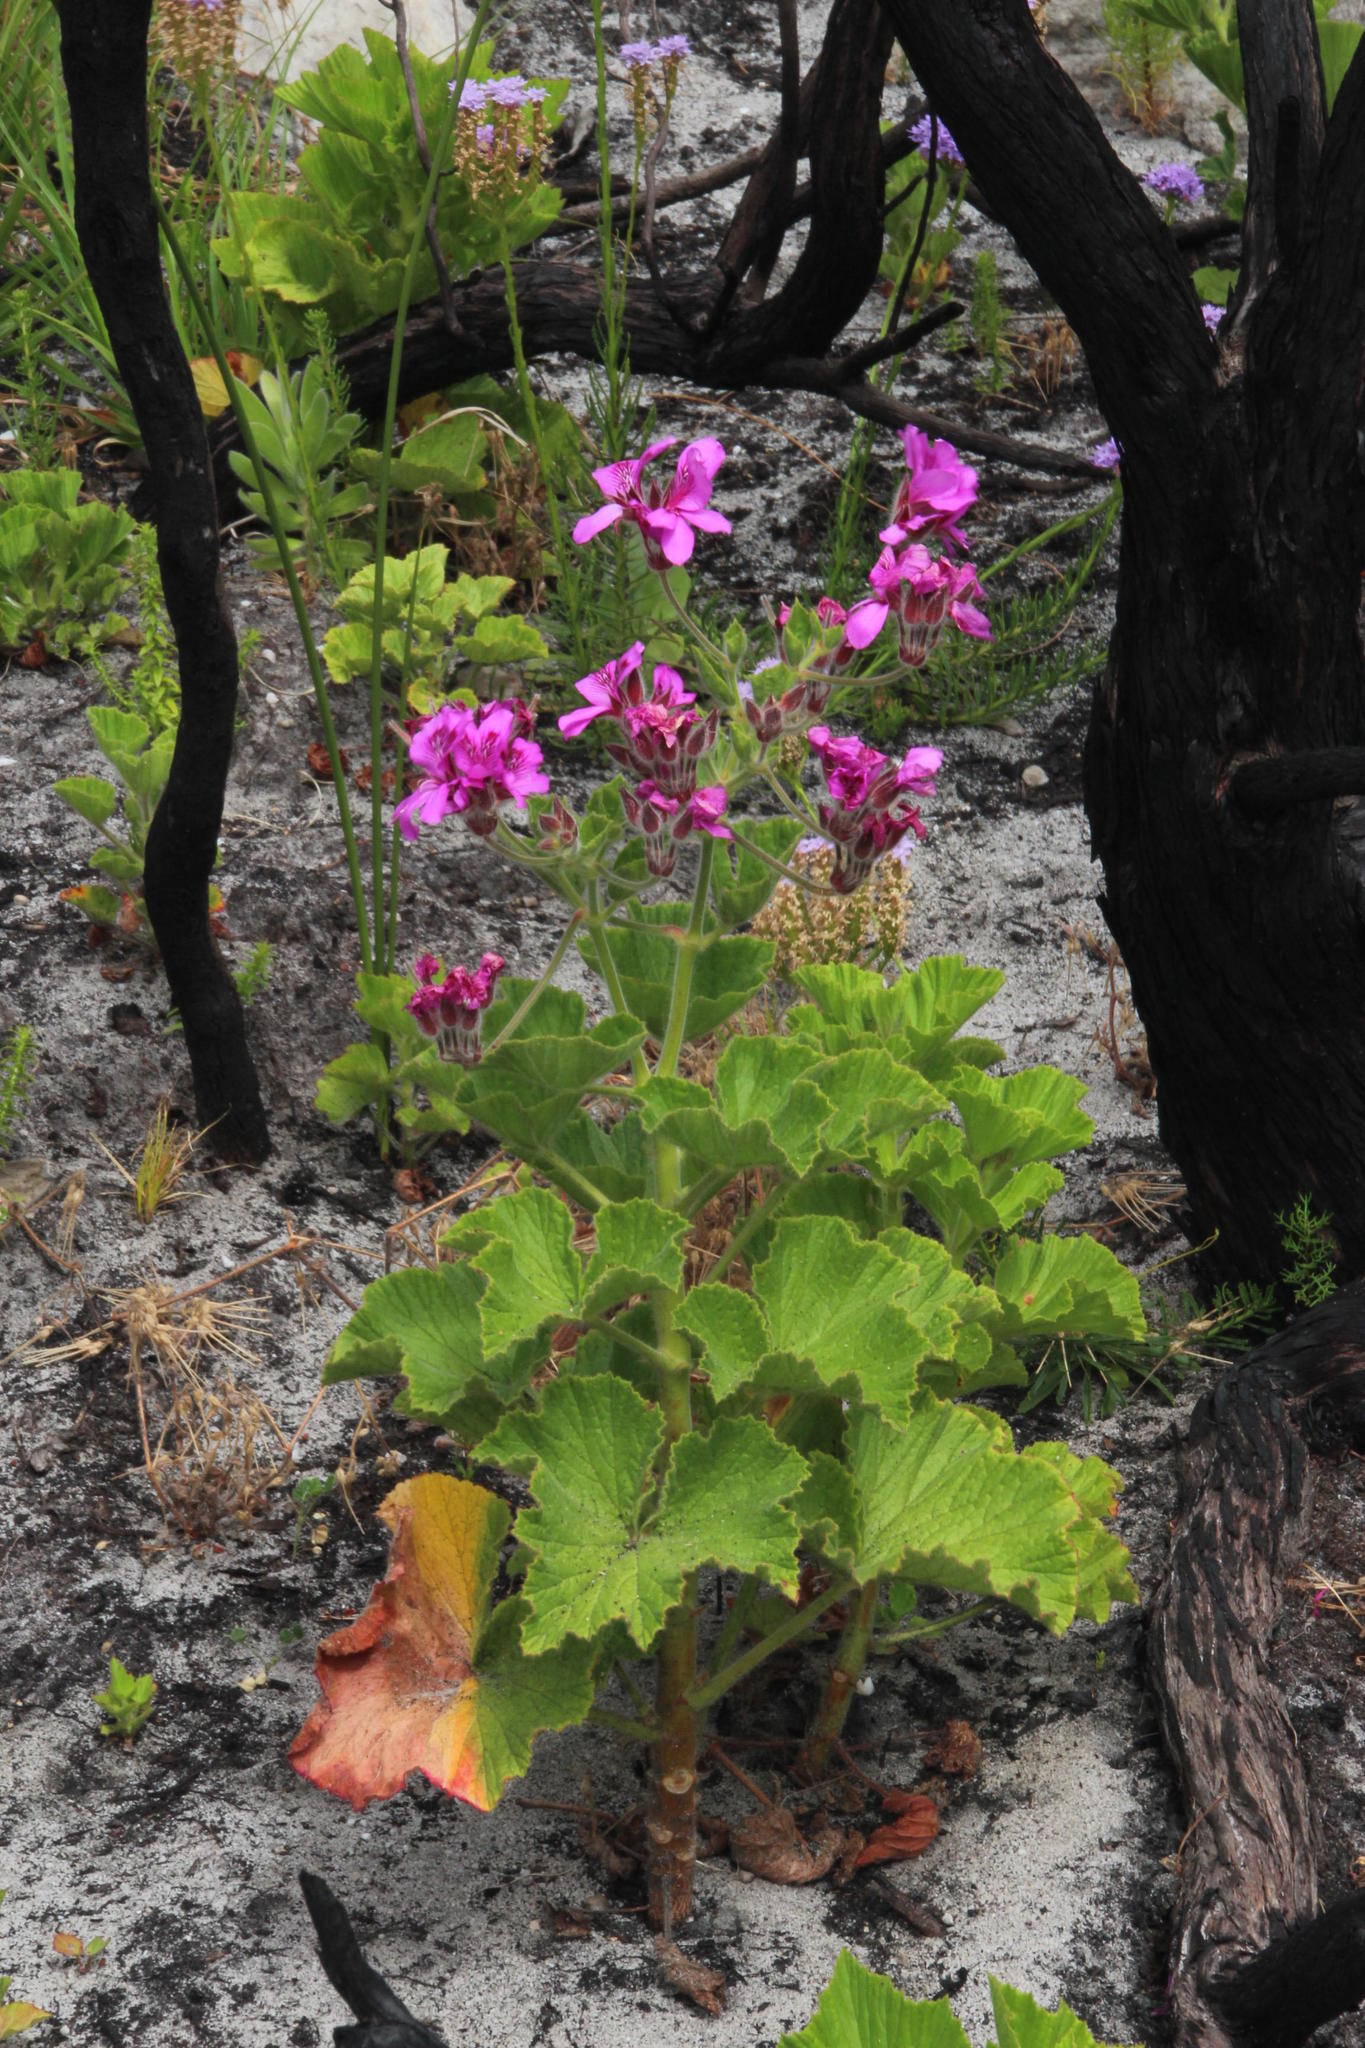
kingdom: Plantae
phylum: Tracheophyta
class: Magnoliopsida
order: Geraniales
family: Geraniaceae
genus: Pelargonium
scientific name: Pelargonium cucullatum
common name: Tree pelargonium
